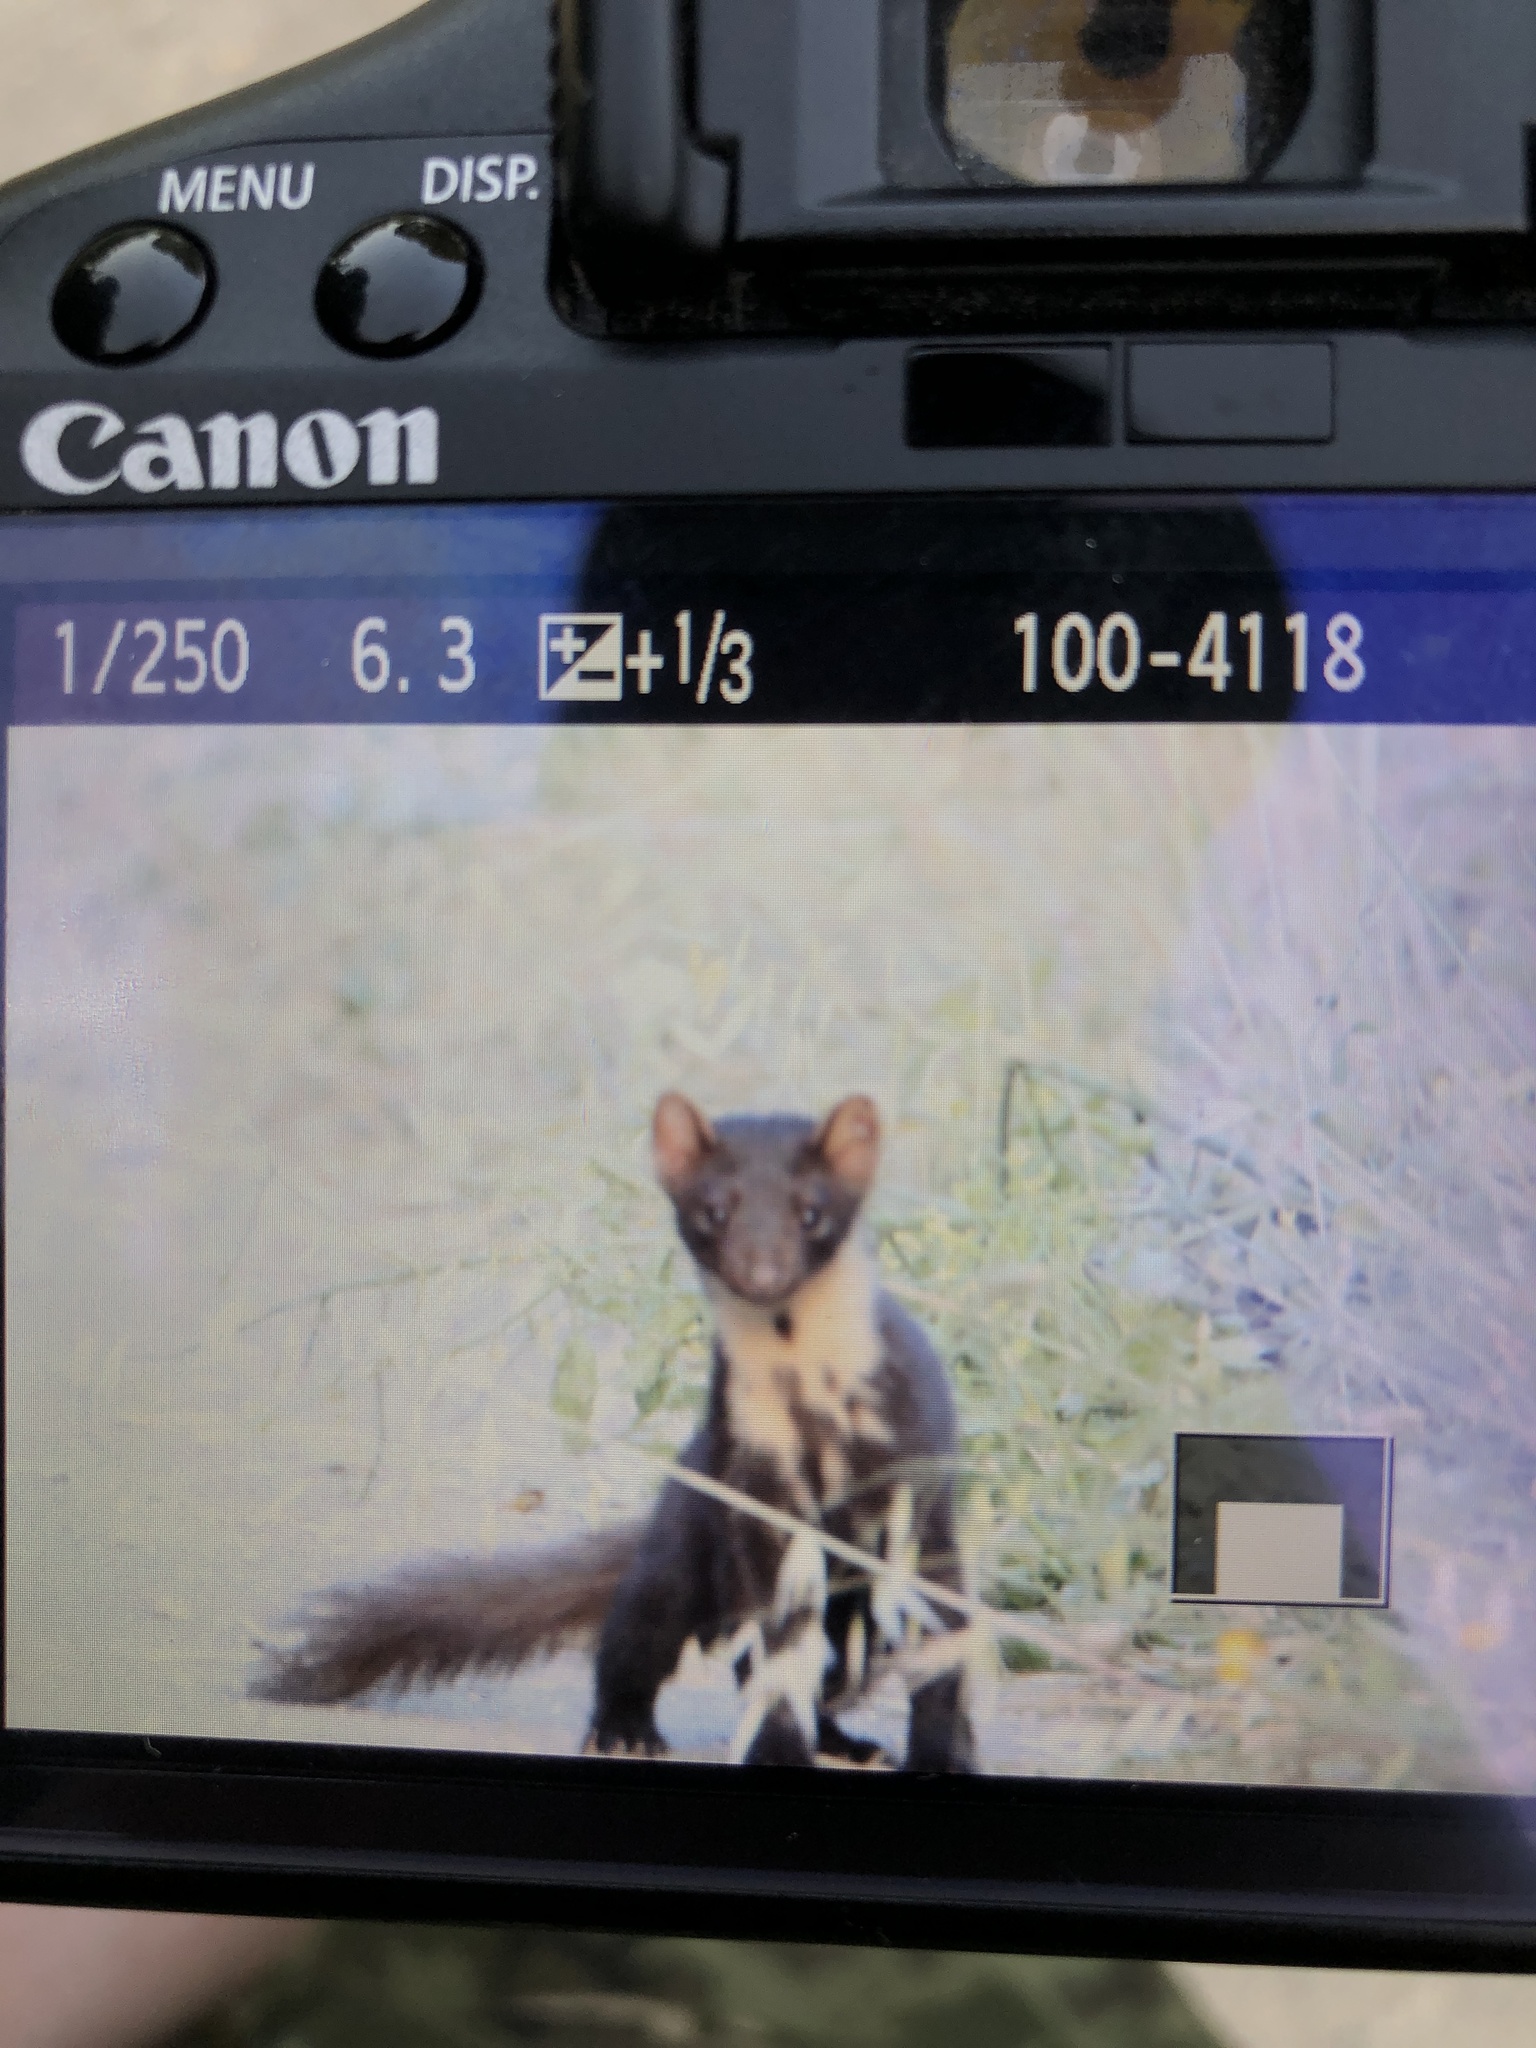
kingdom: Animalia
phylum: Chordata
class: Mammalia
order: Carnivora
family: Mustelidae
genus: Martes
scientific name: Martes martes
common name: European pine marten
